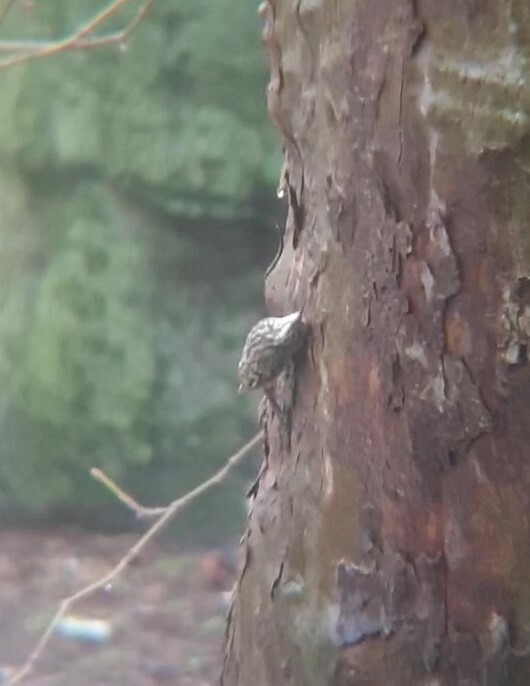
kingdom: Animalia
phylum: Chordata
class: Aves
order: Passeriformes
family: Certhiidae
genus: Certhia
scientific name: Certhia brachydactyla
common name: Short-toed treecreeper
